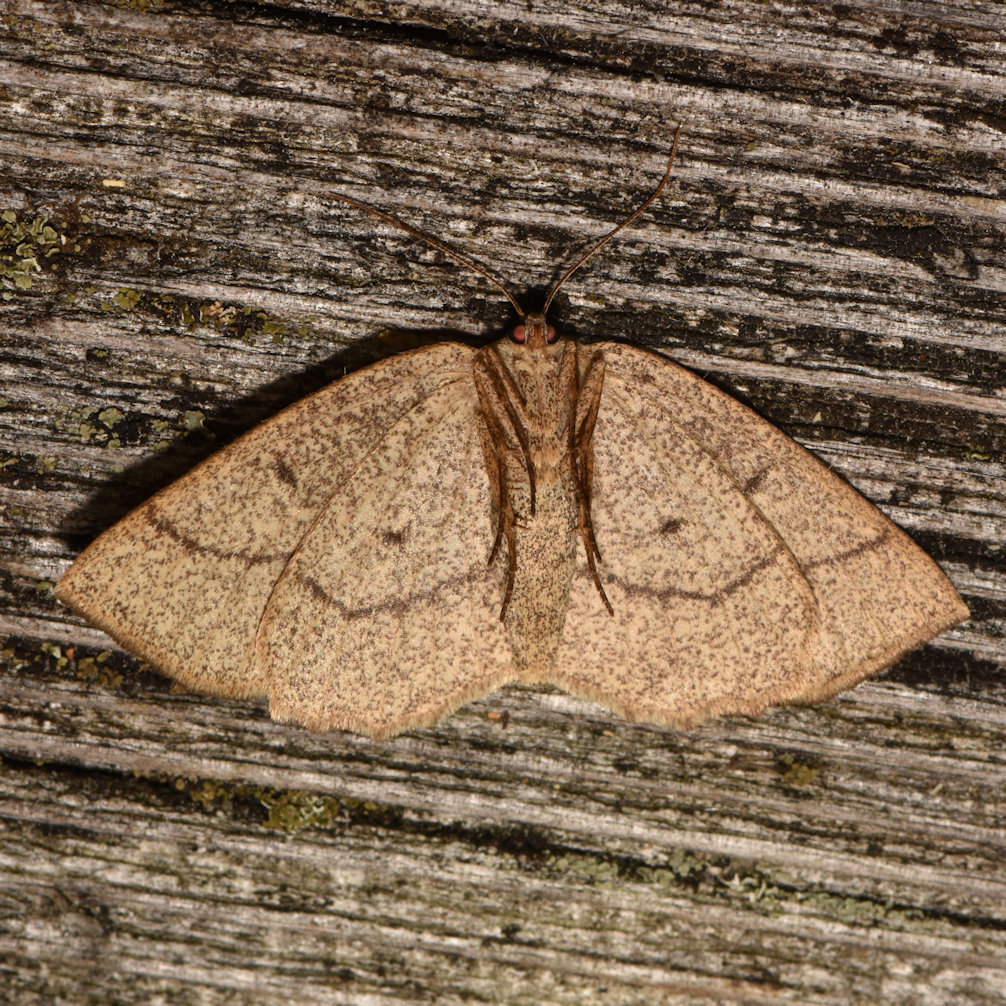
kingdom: Animalia
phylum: Arthropoda
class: Insecta
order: Lepidoptera
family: Geometridae
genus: Euchlaena
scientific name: Euchlaena irraria
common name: Least-marked euchlaena
